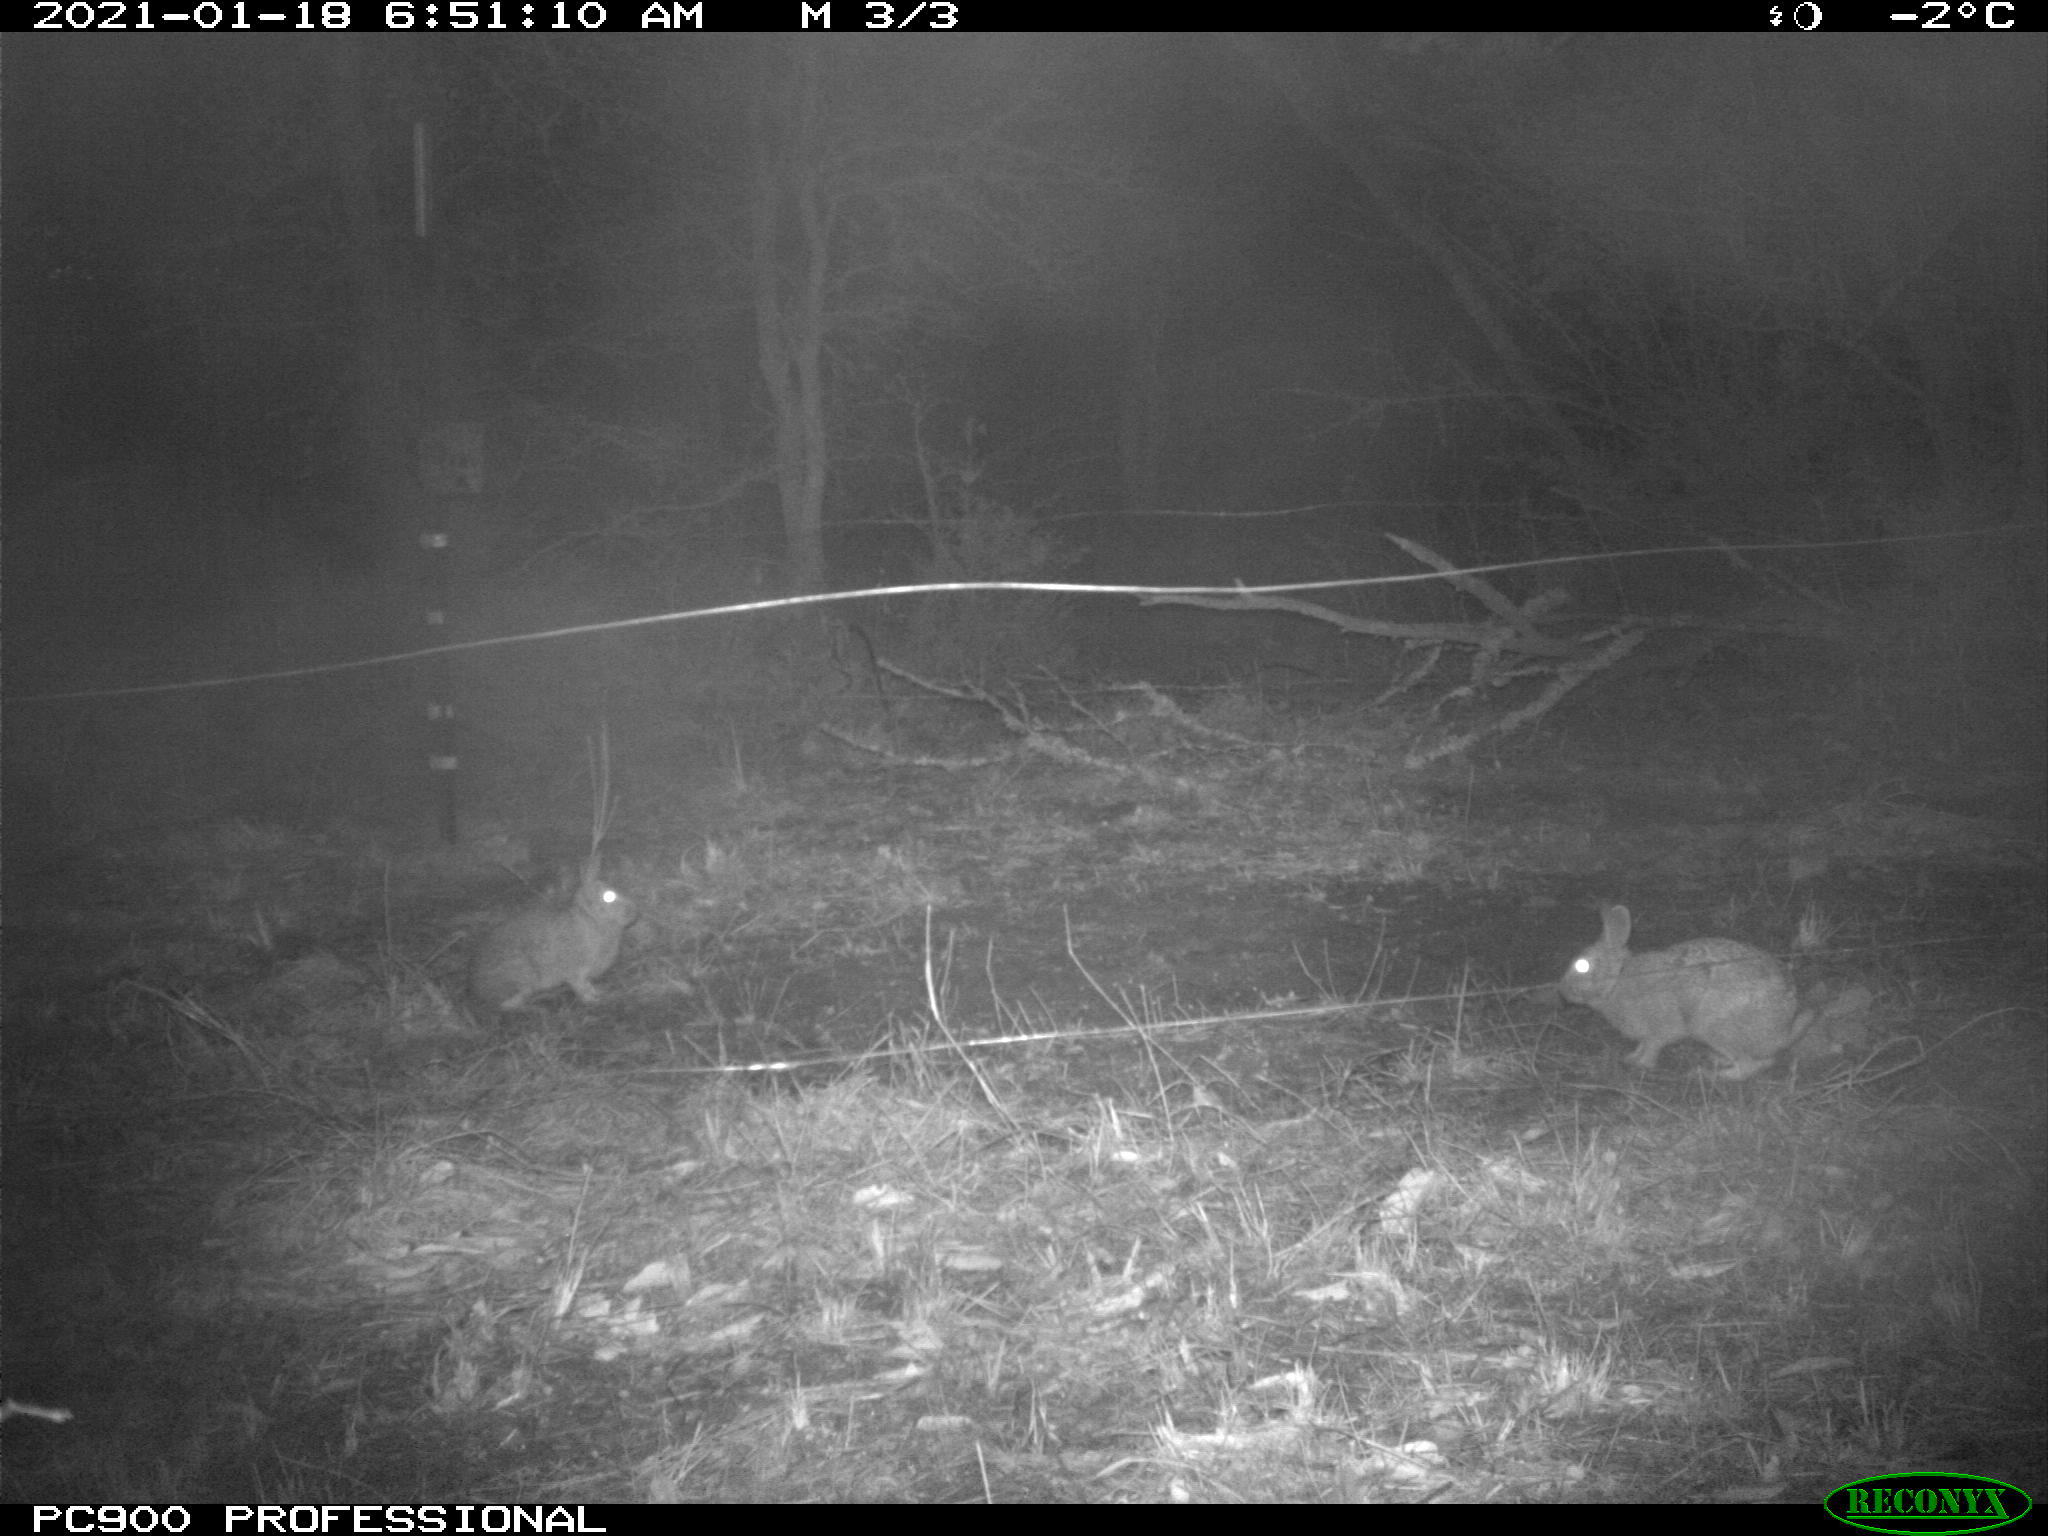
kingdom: Animalia
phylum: Chordata
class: Mammalia
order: Lagomorpha
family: Leporidae
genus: Sylvilagus
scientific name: Sylvilagus floridanus
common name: Eastern cottontail
